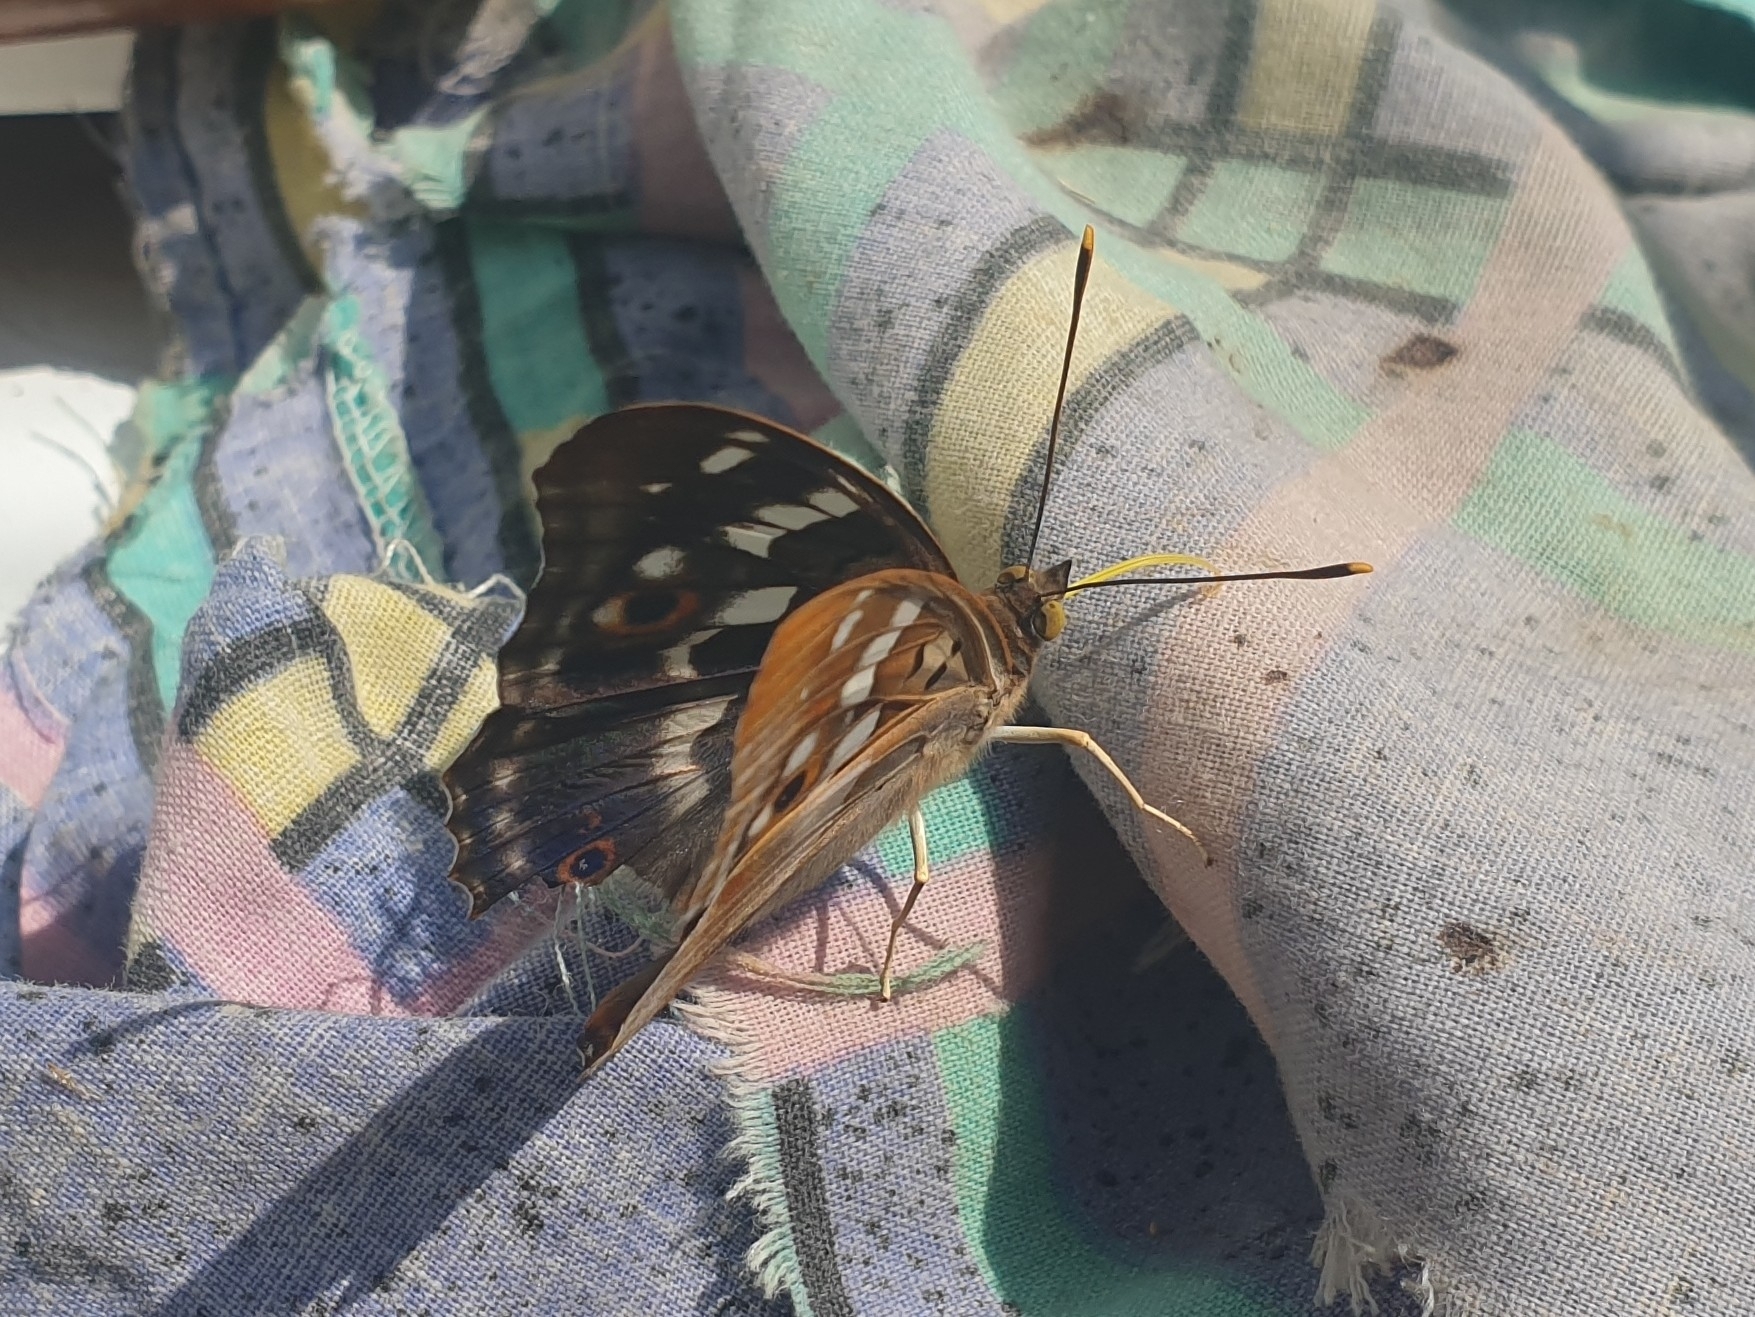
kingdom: Animalia
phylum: Arthropoda
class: Insecta
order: Lepidoptera
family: Nymphalidae
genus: Apatura
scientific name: Apatura ilia
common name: Lesser purple emperor
